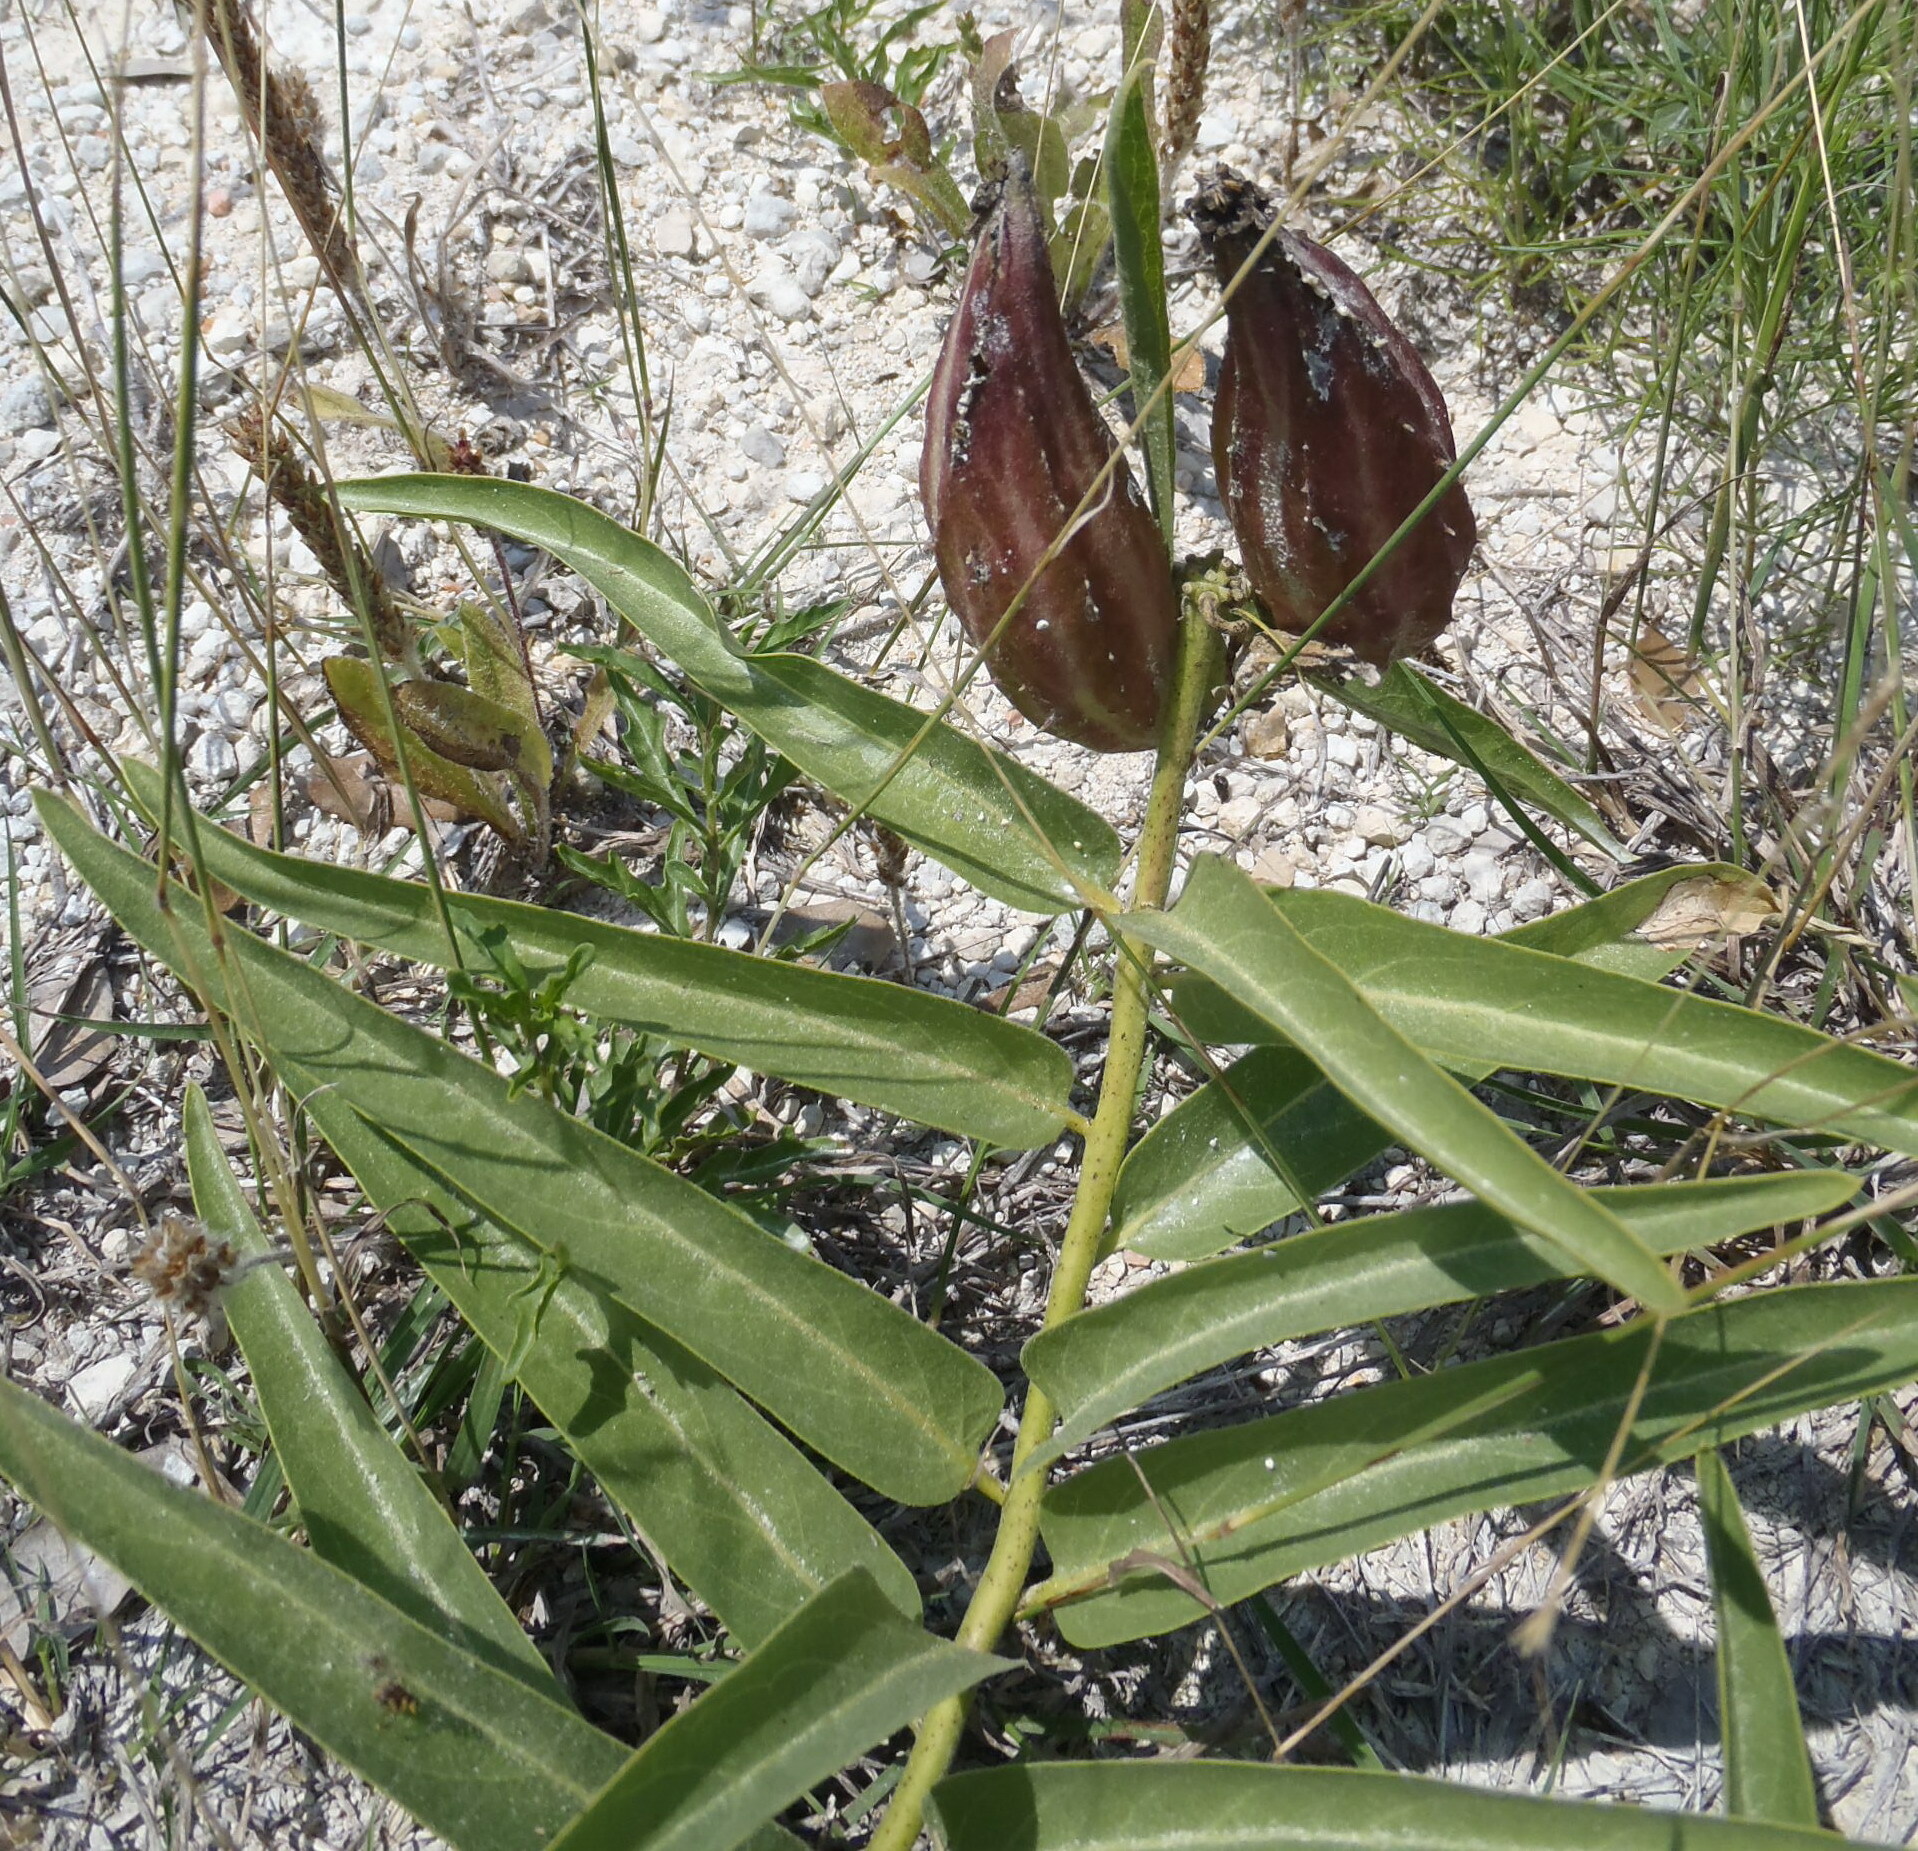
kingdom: Plantae
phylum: Tracheophyta
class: Magnoliopsida
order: Gentianales
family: Apocynaceae
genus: Asclepias
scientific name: Asclepias asperula
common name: Antelope horns
